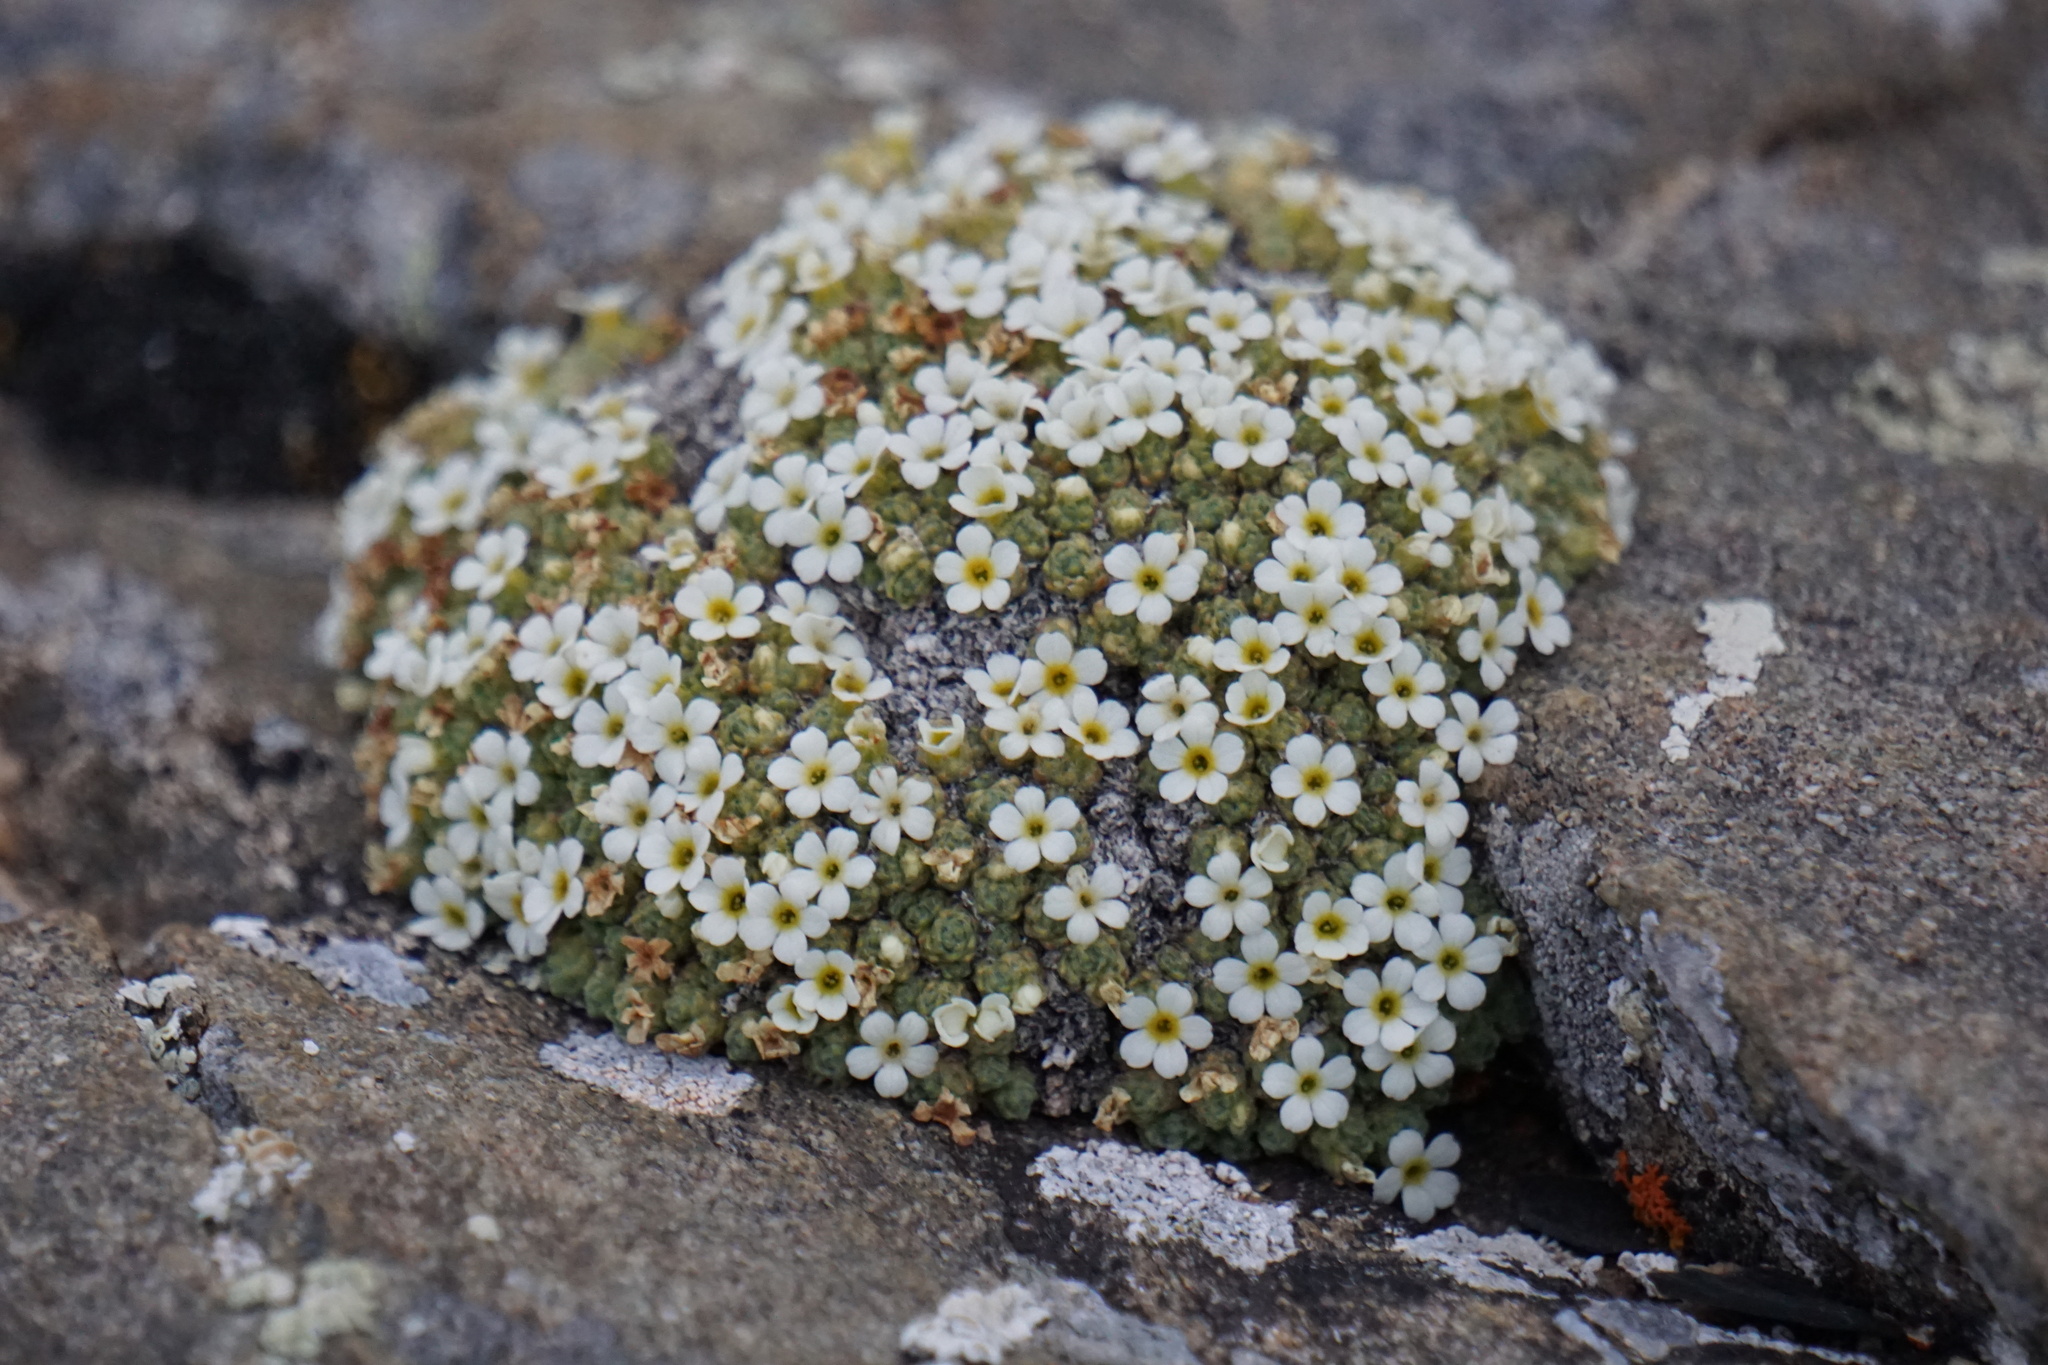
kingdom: Plantae
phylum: Tracheophyta
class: Magnoliopsida
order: Ericales
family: Primulaceae
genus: Androsace
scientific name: Androsace helvetica
